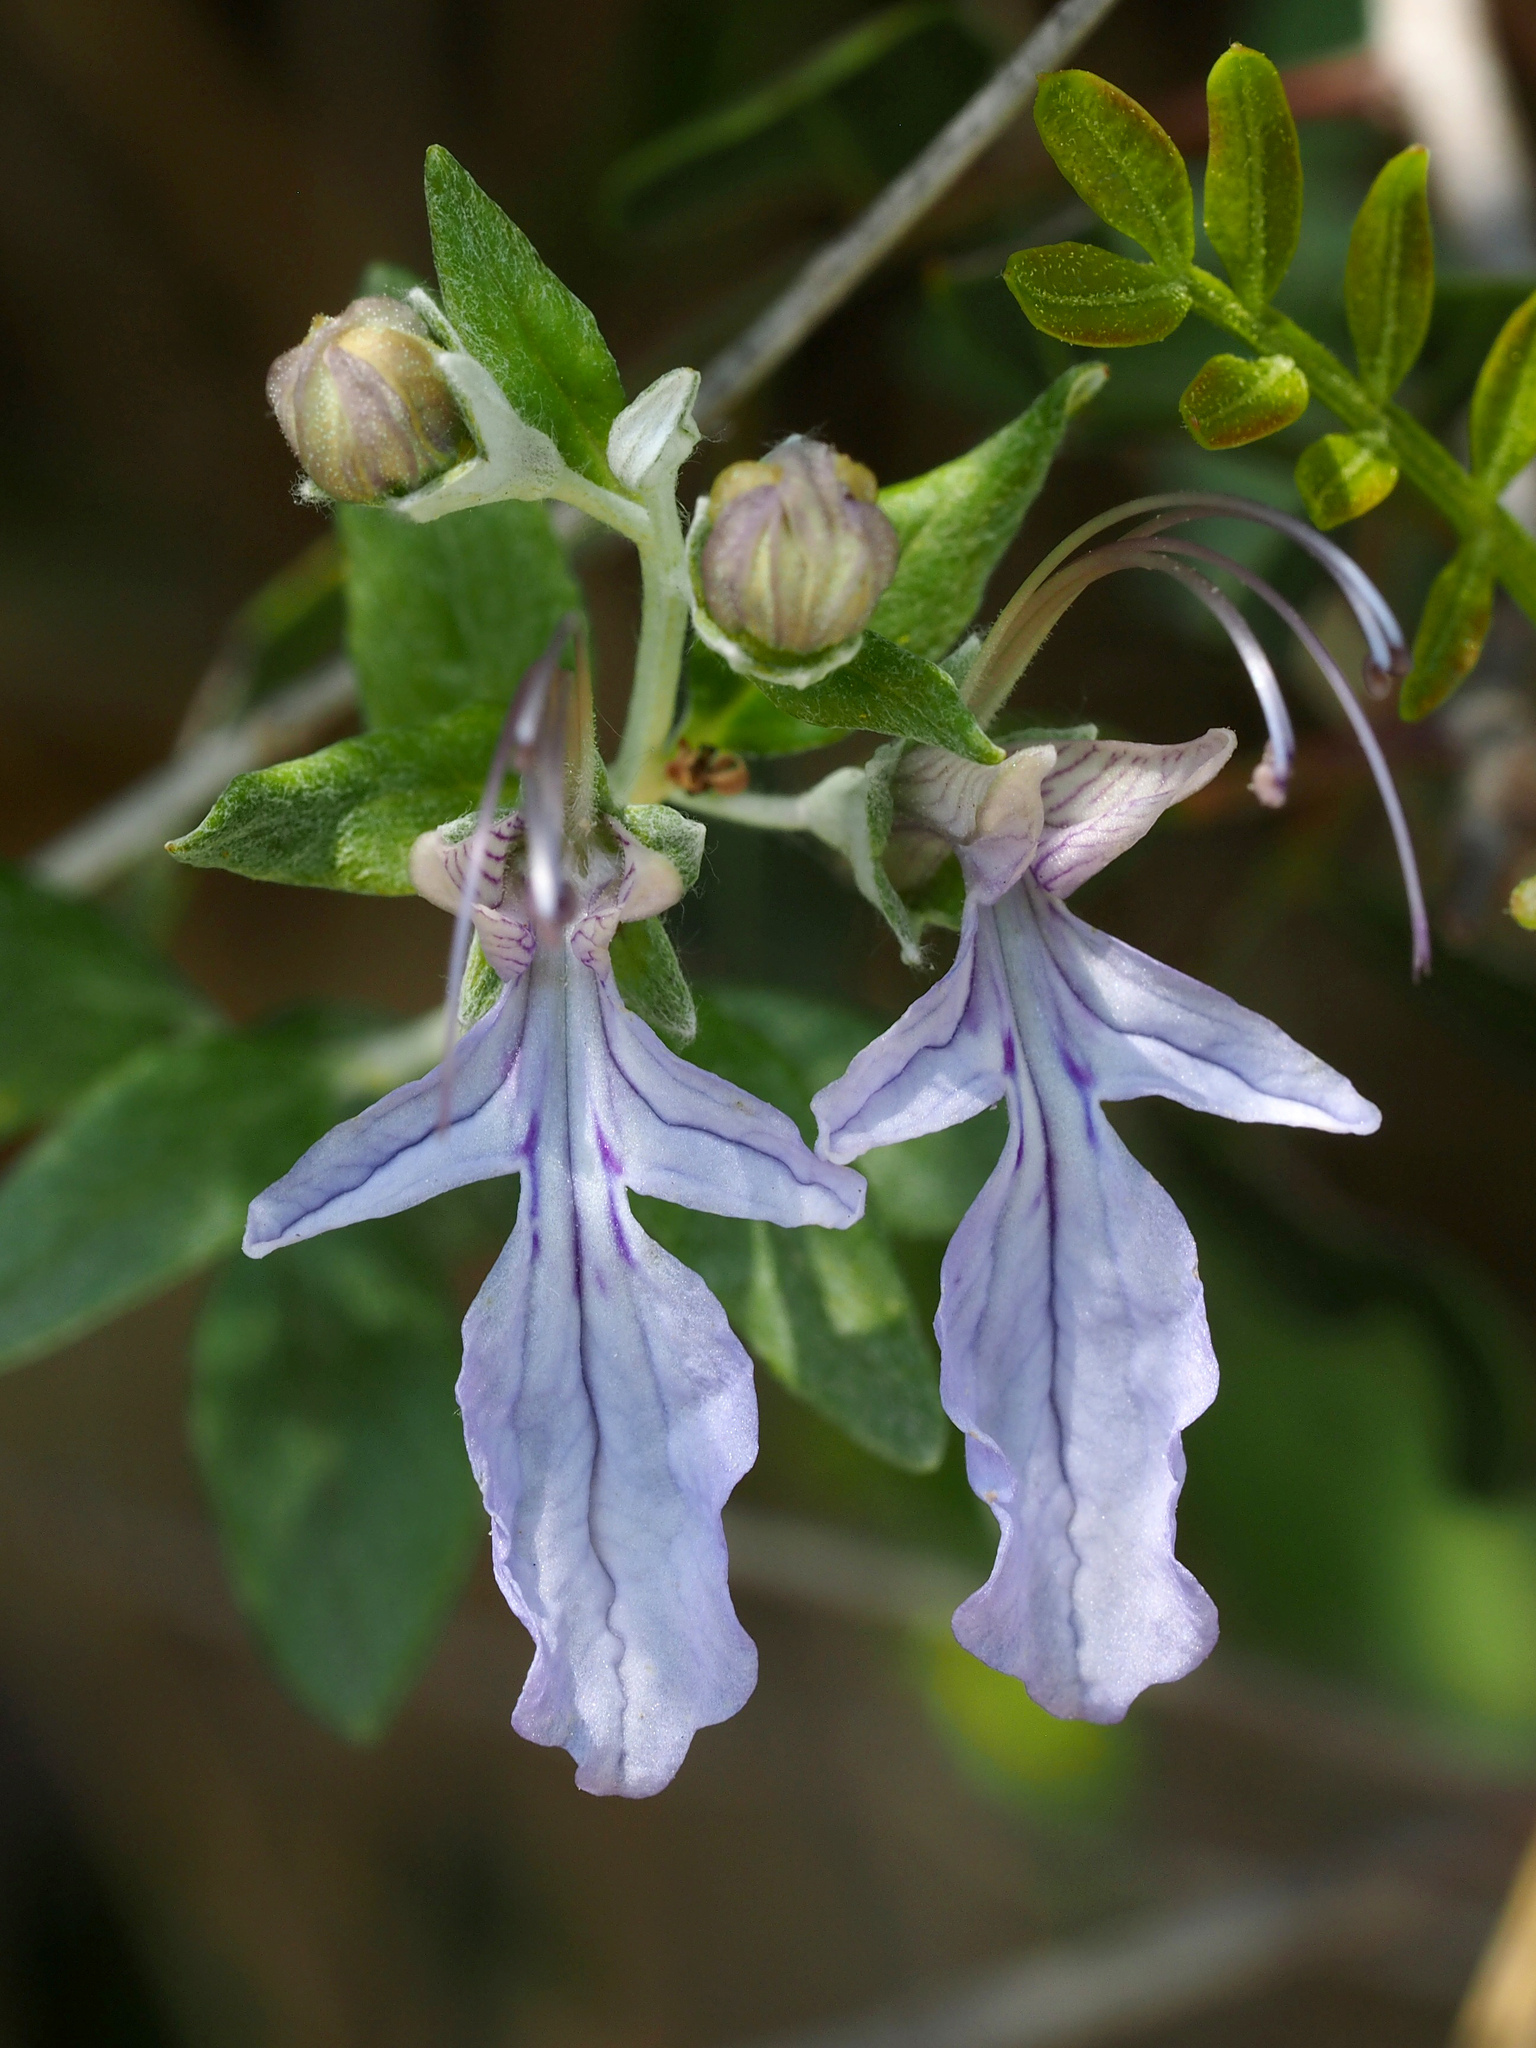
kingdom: Plantae
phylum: Tracheophyta
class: Magnoliopsida
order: Lamiales
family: Lamiaceae
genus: Teucrium
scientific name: Teucrium fruticans
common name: Shrubby germander
